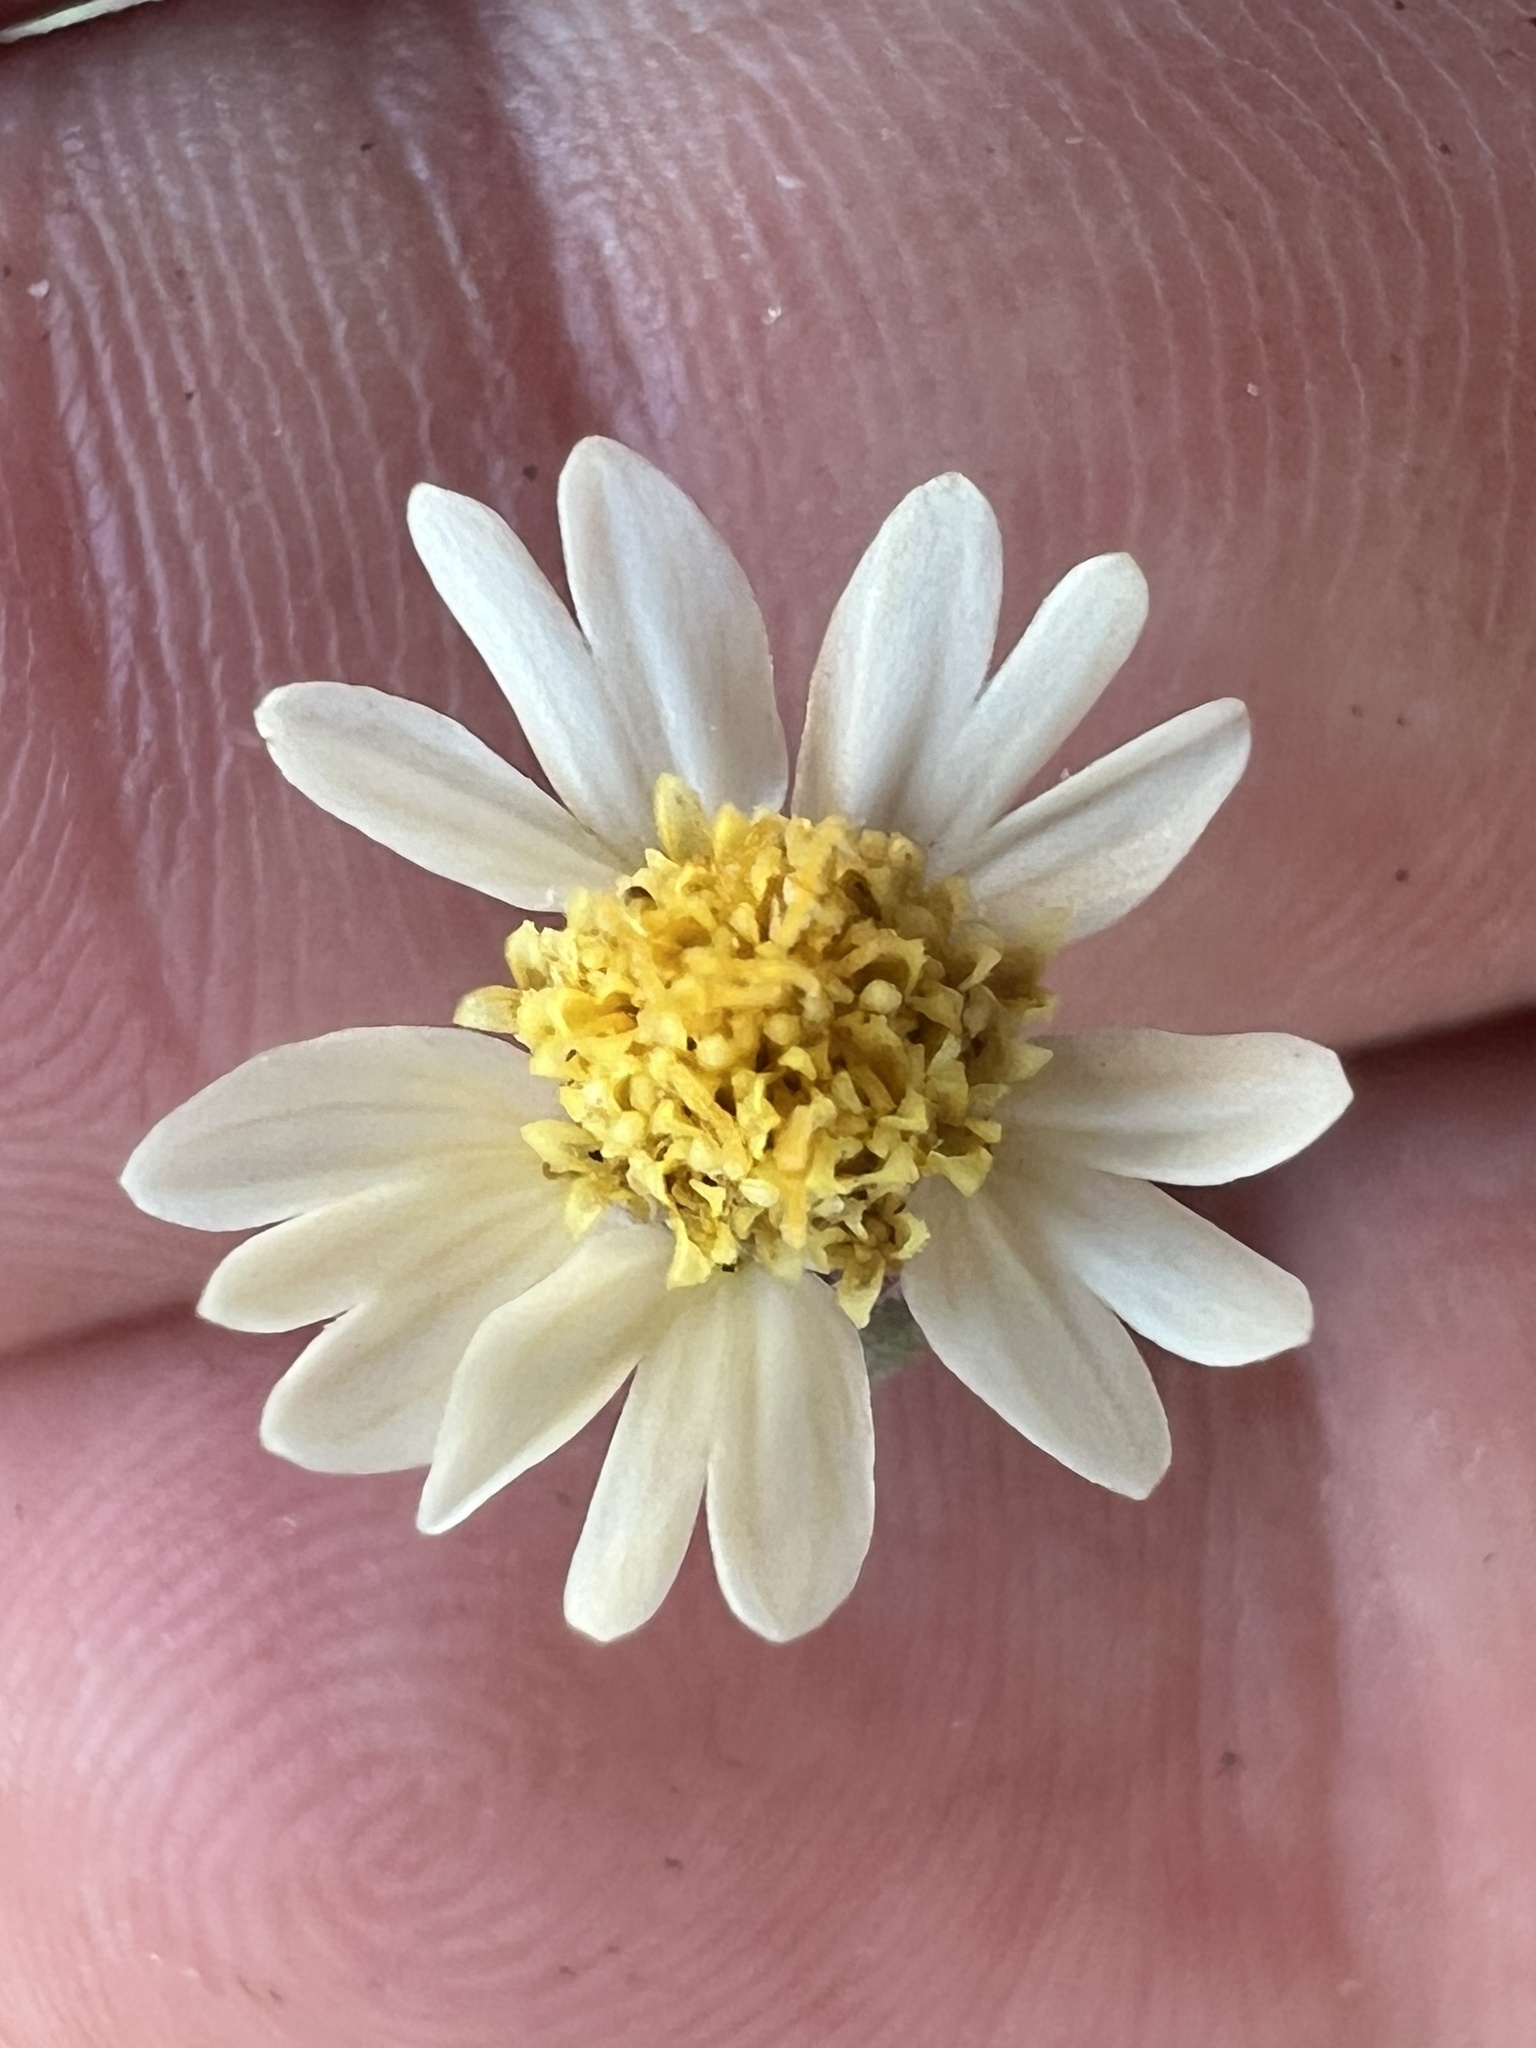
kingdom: Plantae
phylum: Tracheophyta
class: Magnoliopsida
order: Asterales
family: Asteraceae
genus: Tridax
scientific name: Tridax procumbens
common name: Coatbuttons
